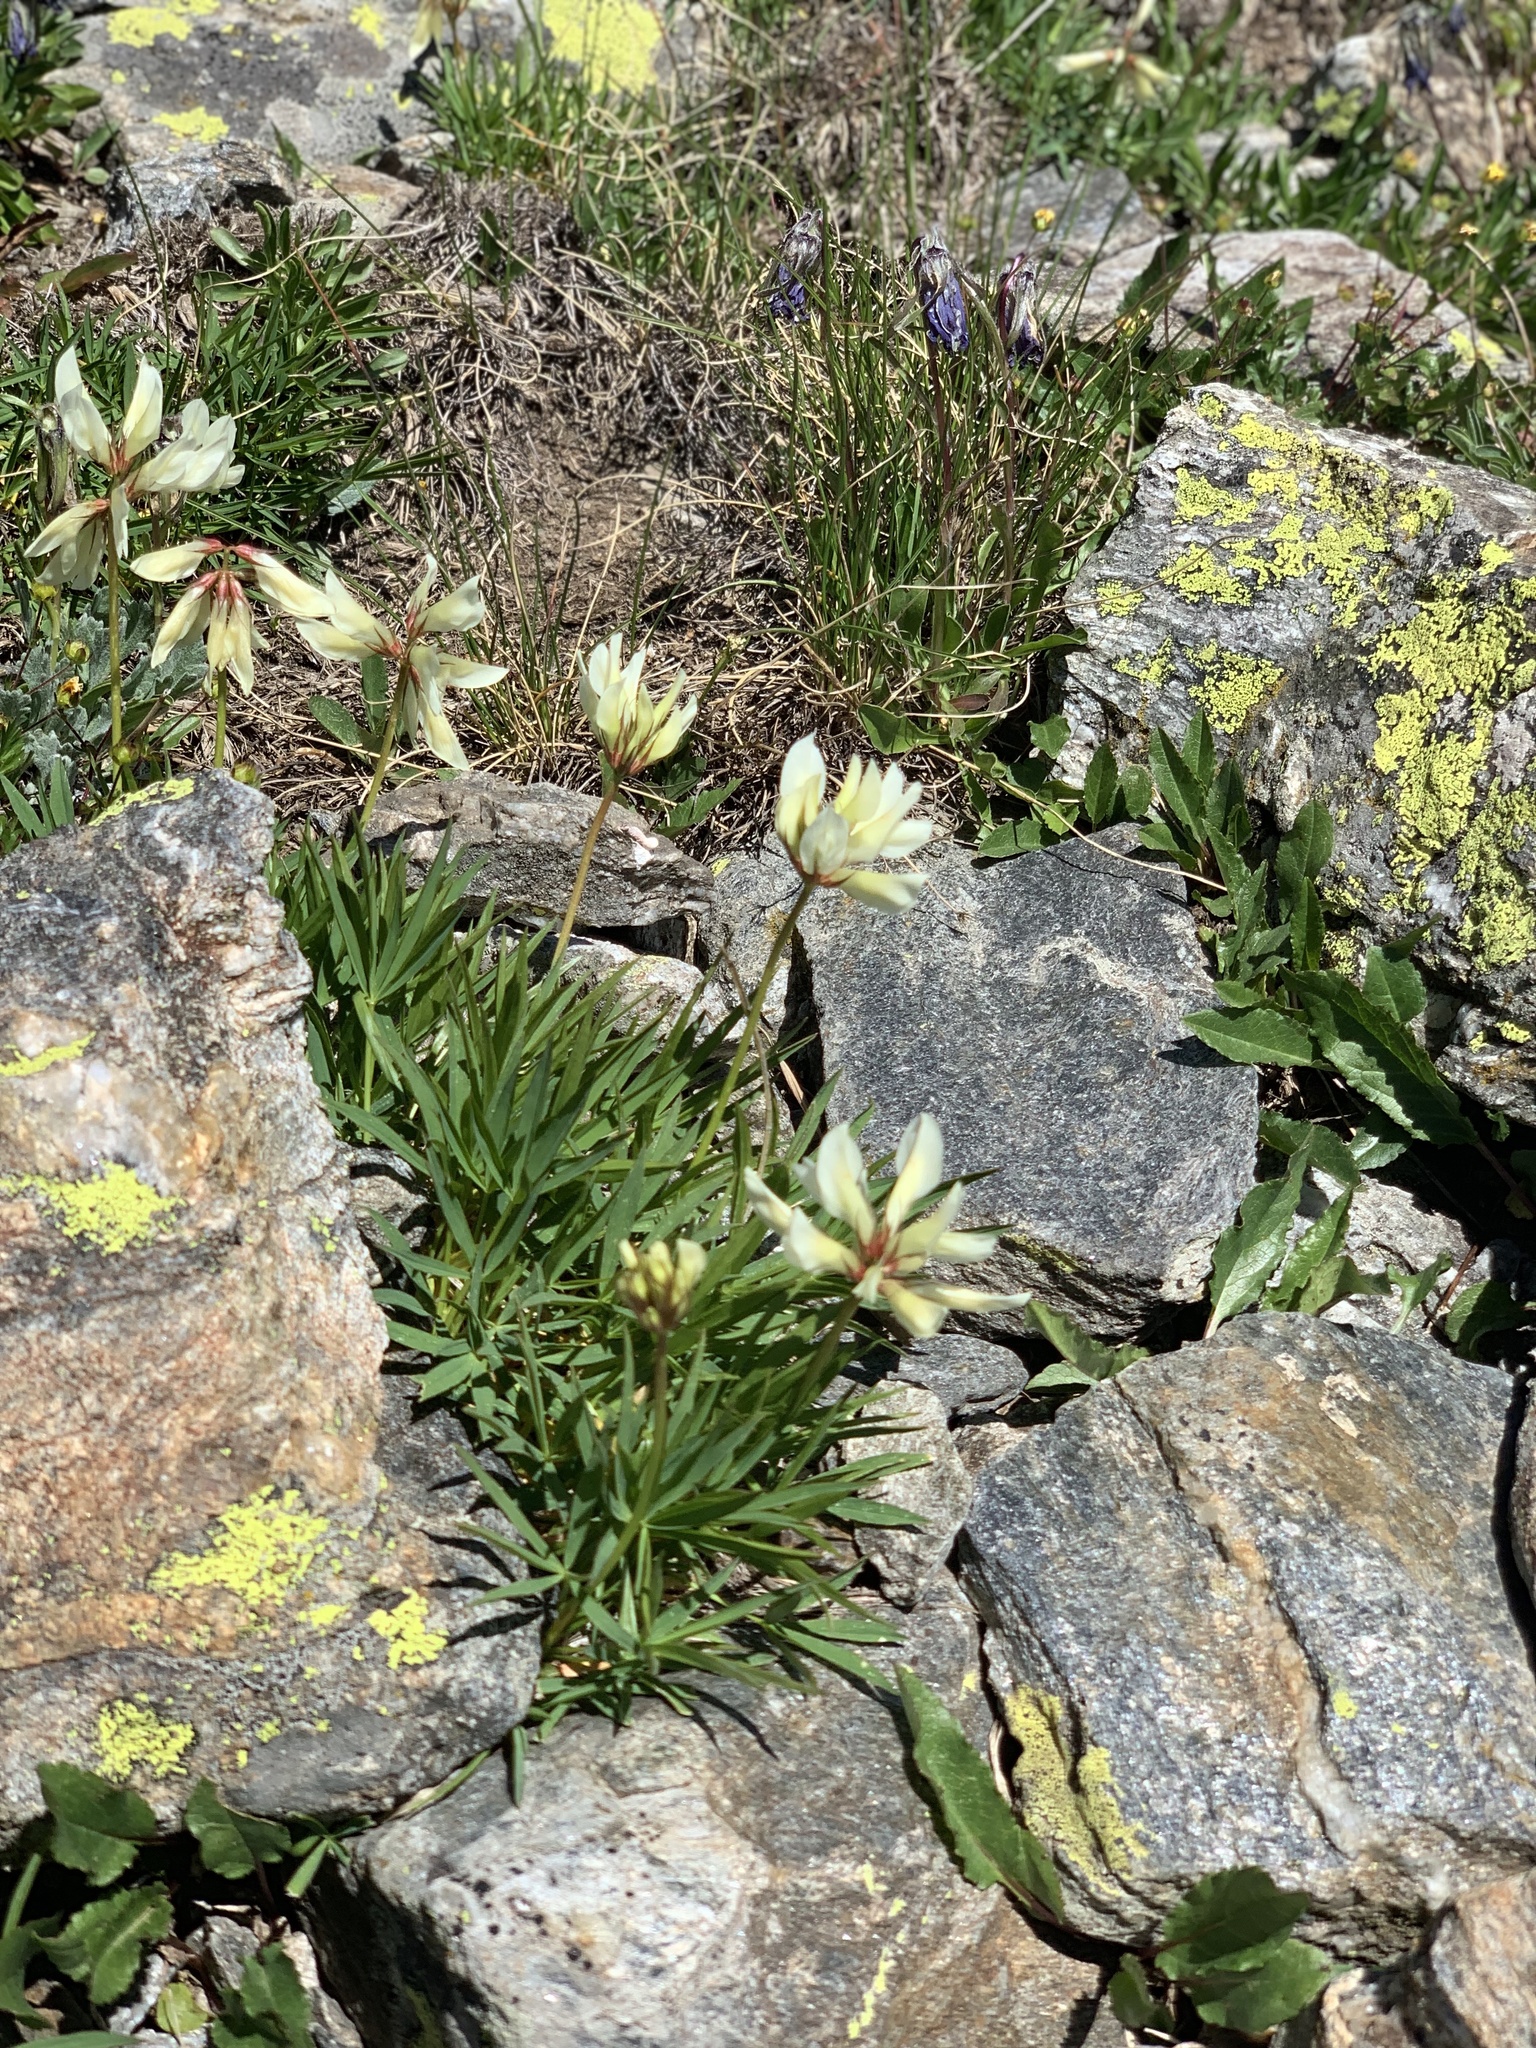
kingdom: Plantae
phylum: Tracheophyta
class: Magnoliopsida
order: Fabales
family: Fabaceae
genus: Trifolium
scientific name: Trifolium polyphyllum
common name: Many-leaf clover
